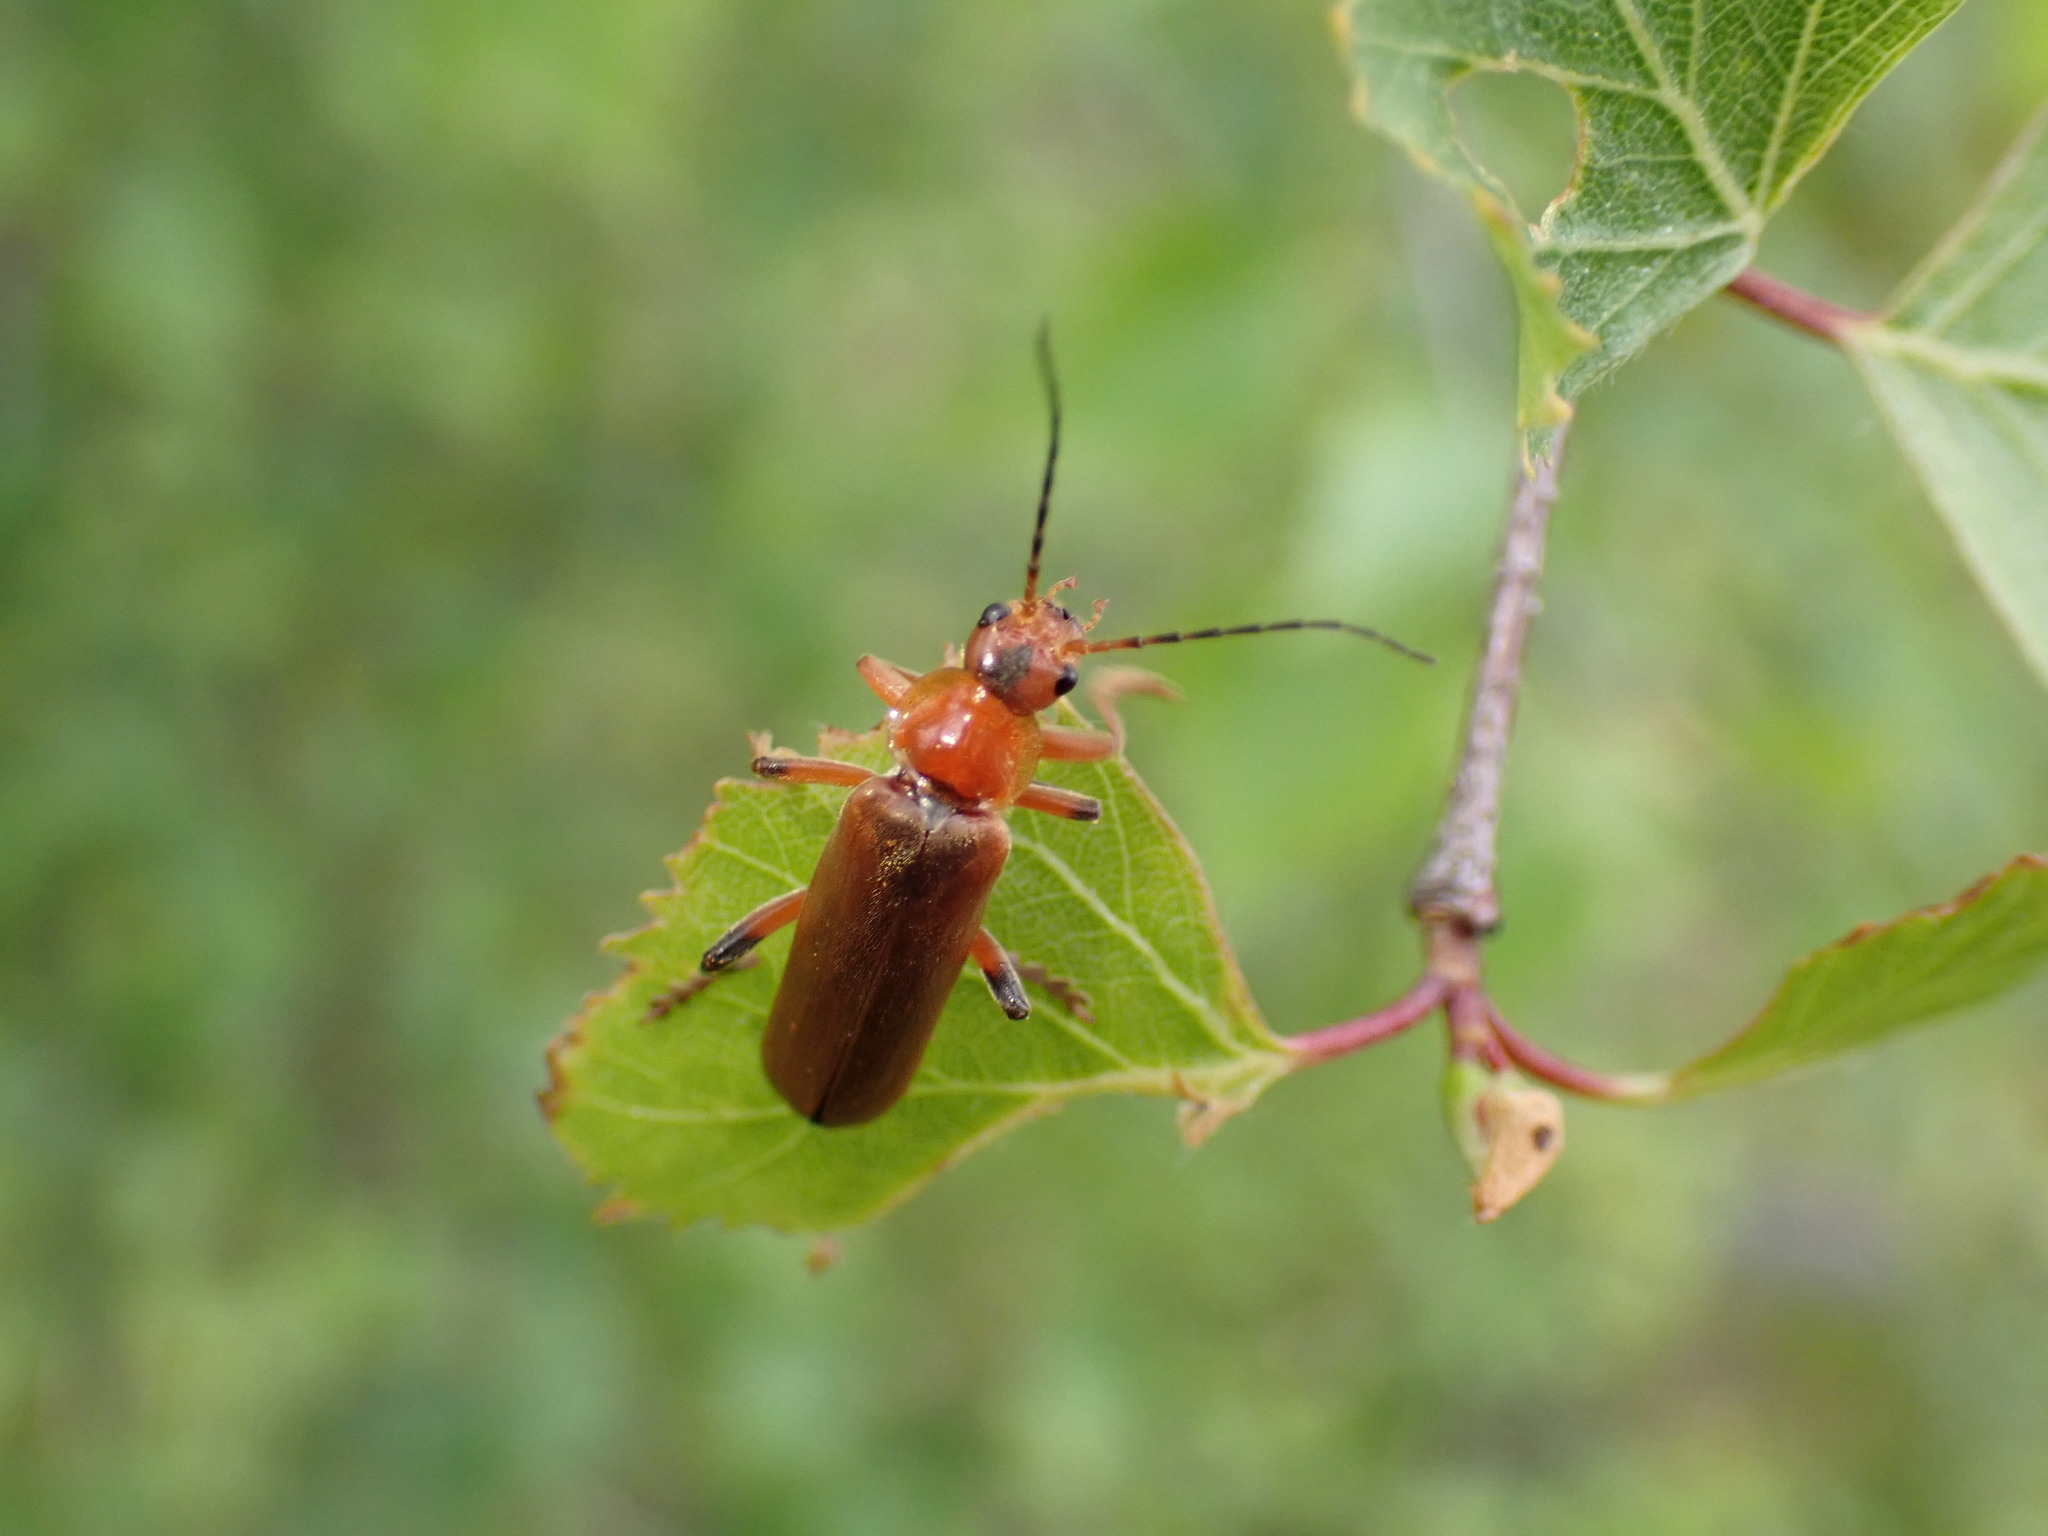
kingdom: Animalia
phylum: Arthropoda
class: Insecta
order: Coleoptera
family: Cantharidae
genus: Cantharis
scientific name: Cantharis livida
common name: Livid soldier beetle
